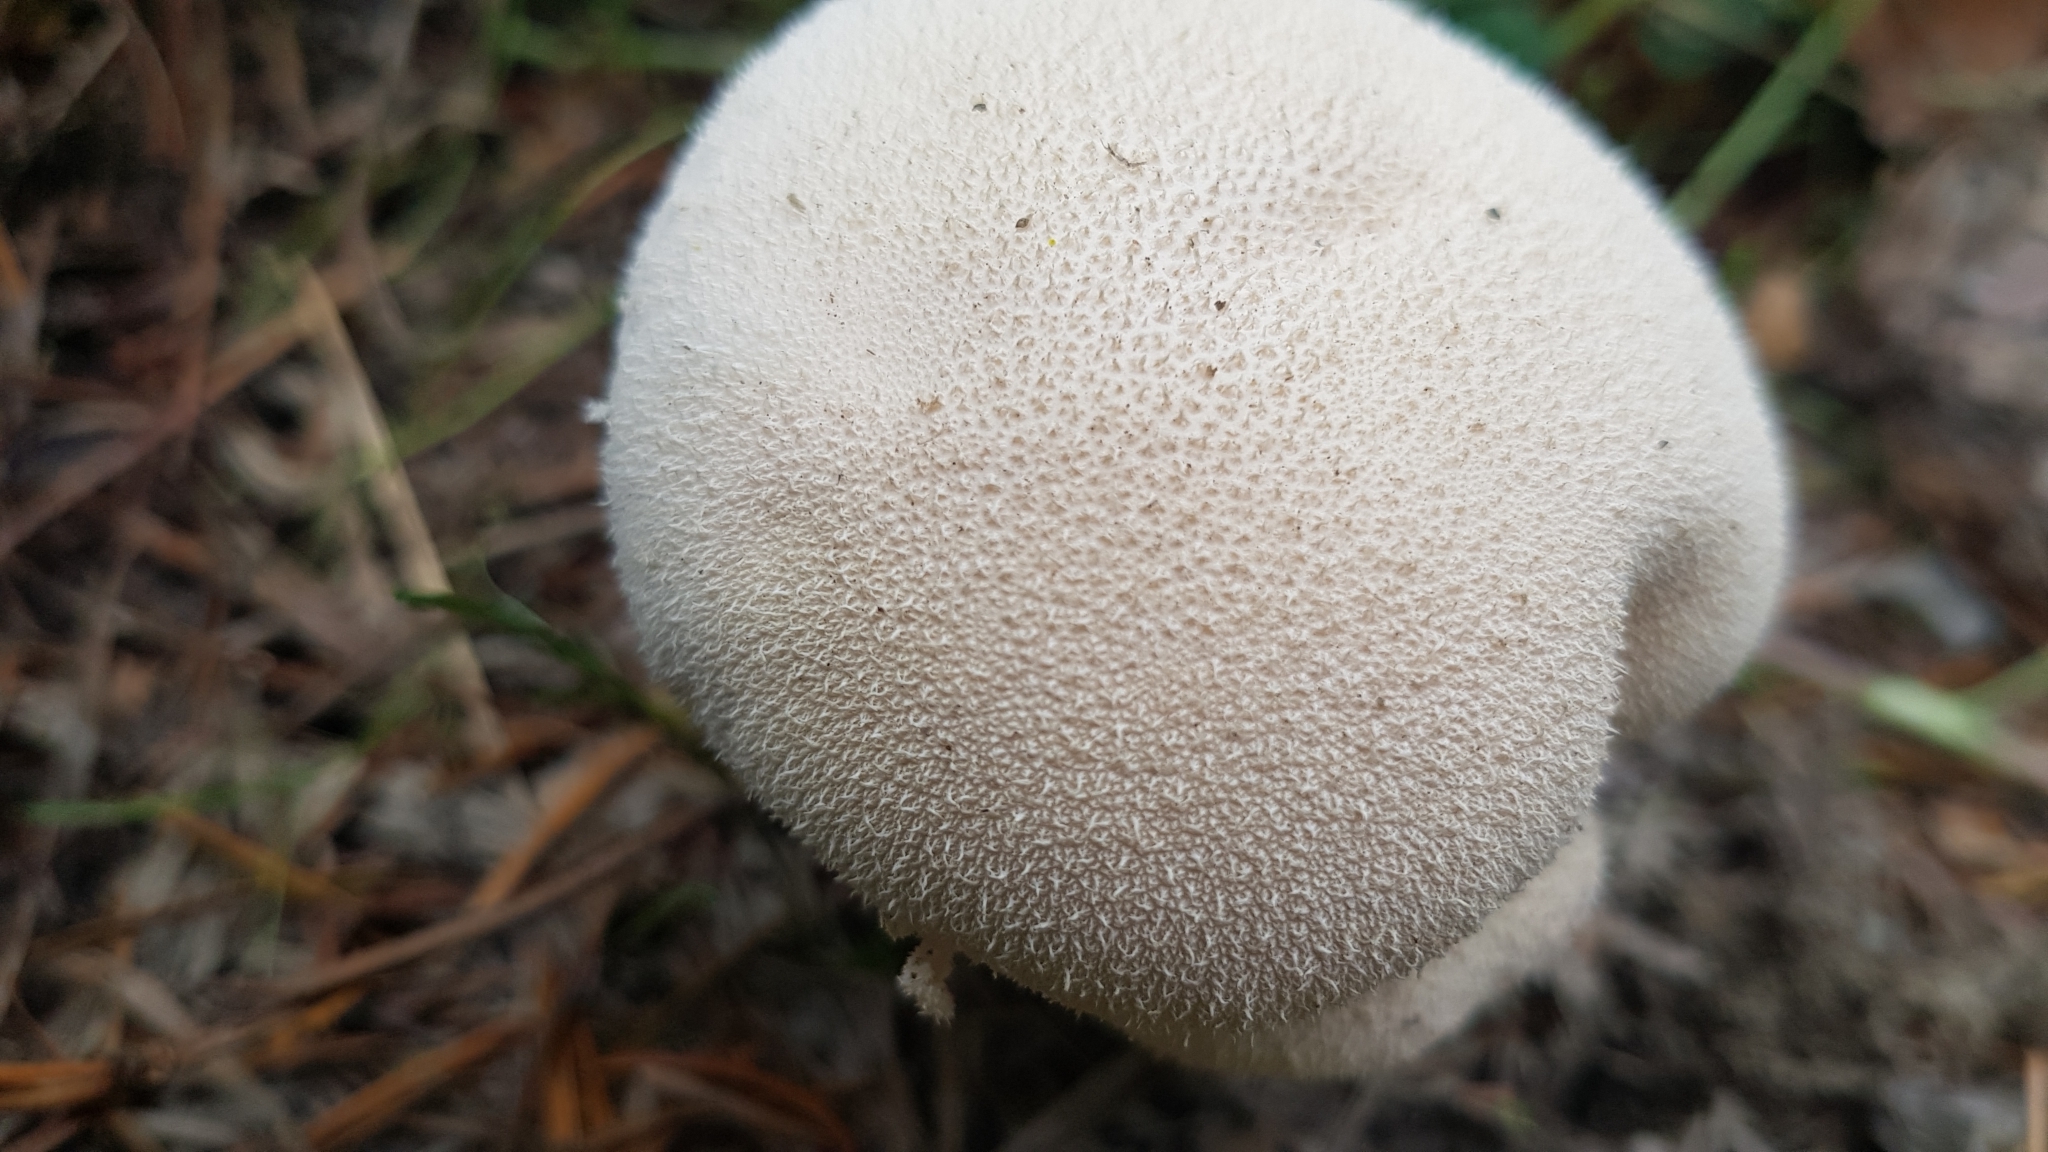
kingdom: Fungi
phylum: Basidiomycota
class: Agaricomycetes
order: Agaricales
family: Lycoperdaceae
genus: Lycoperdon
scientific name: Lycoperdon pratense
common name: Meadow puffball
